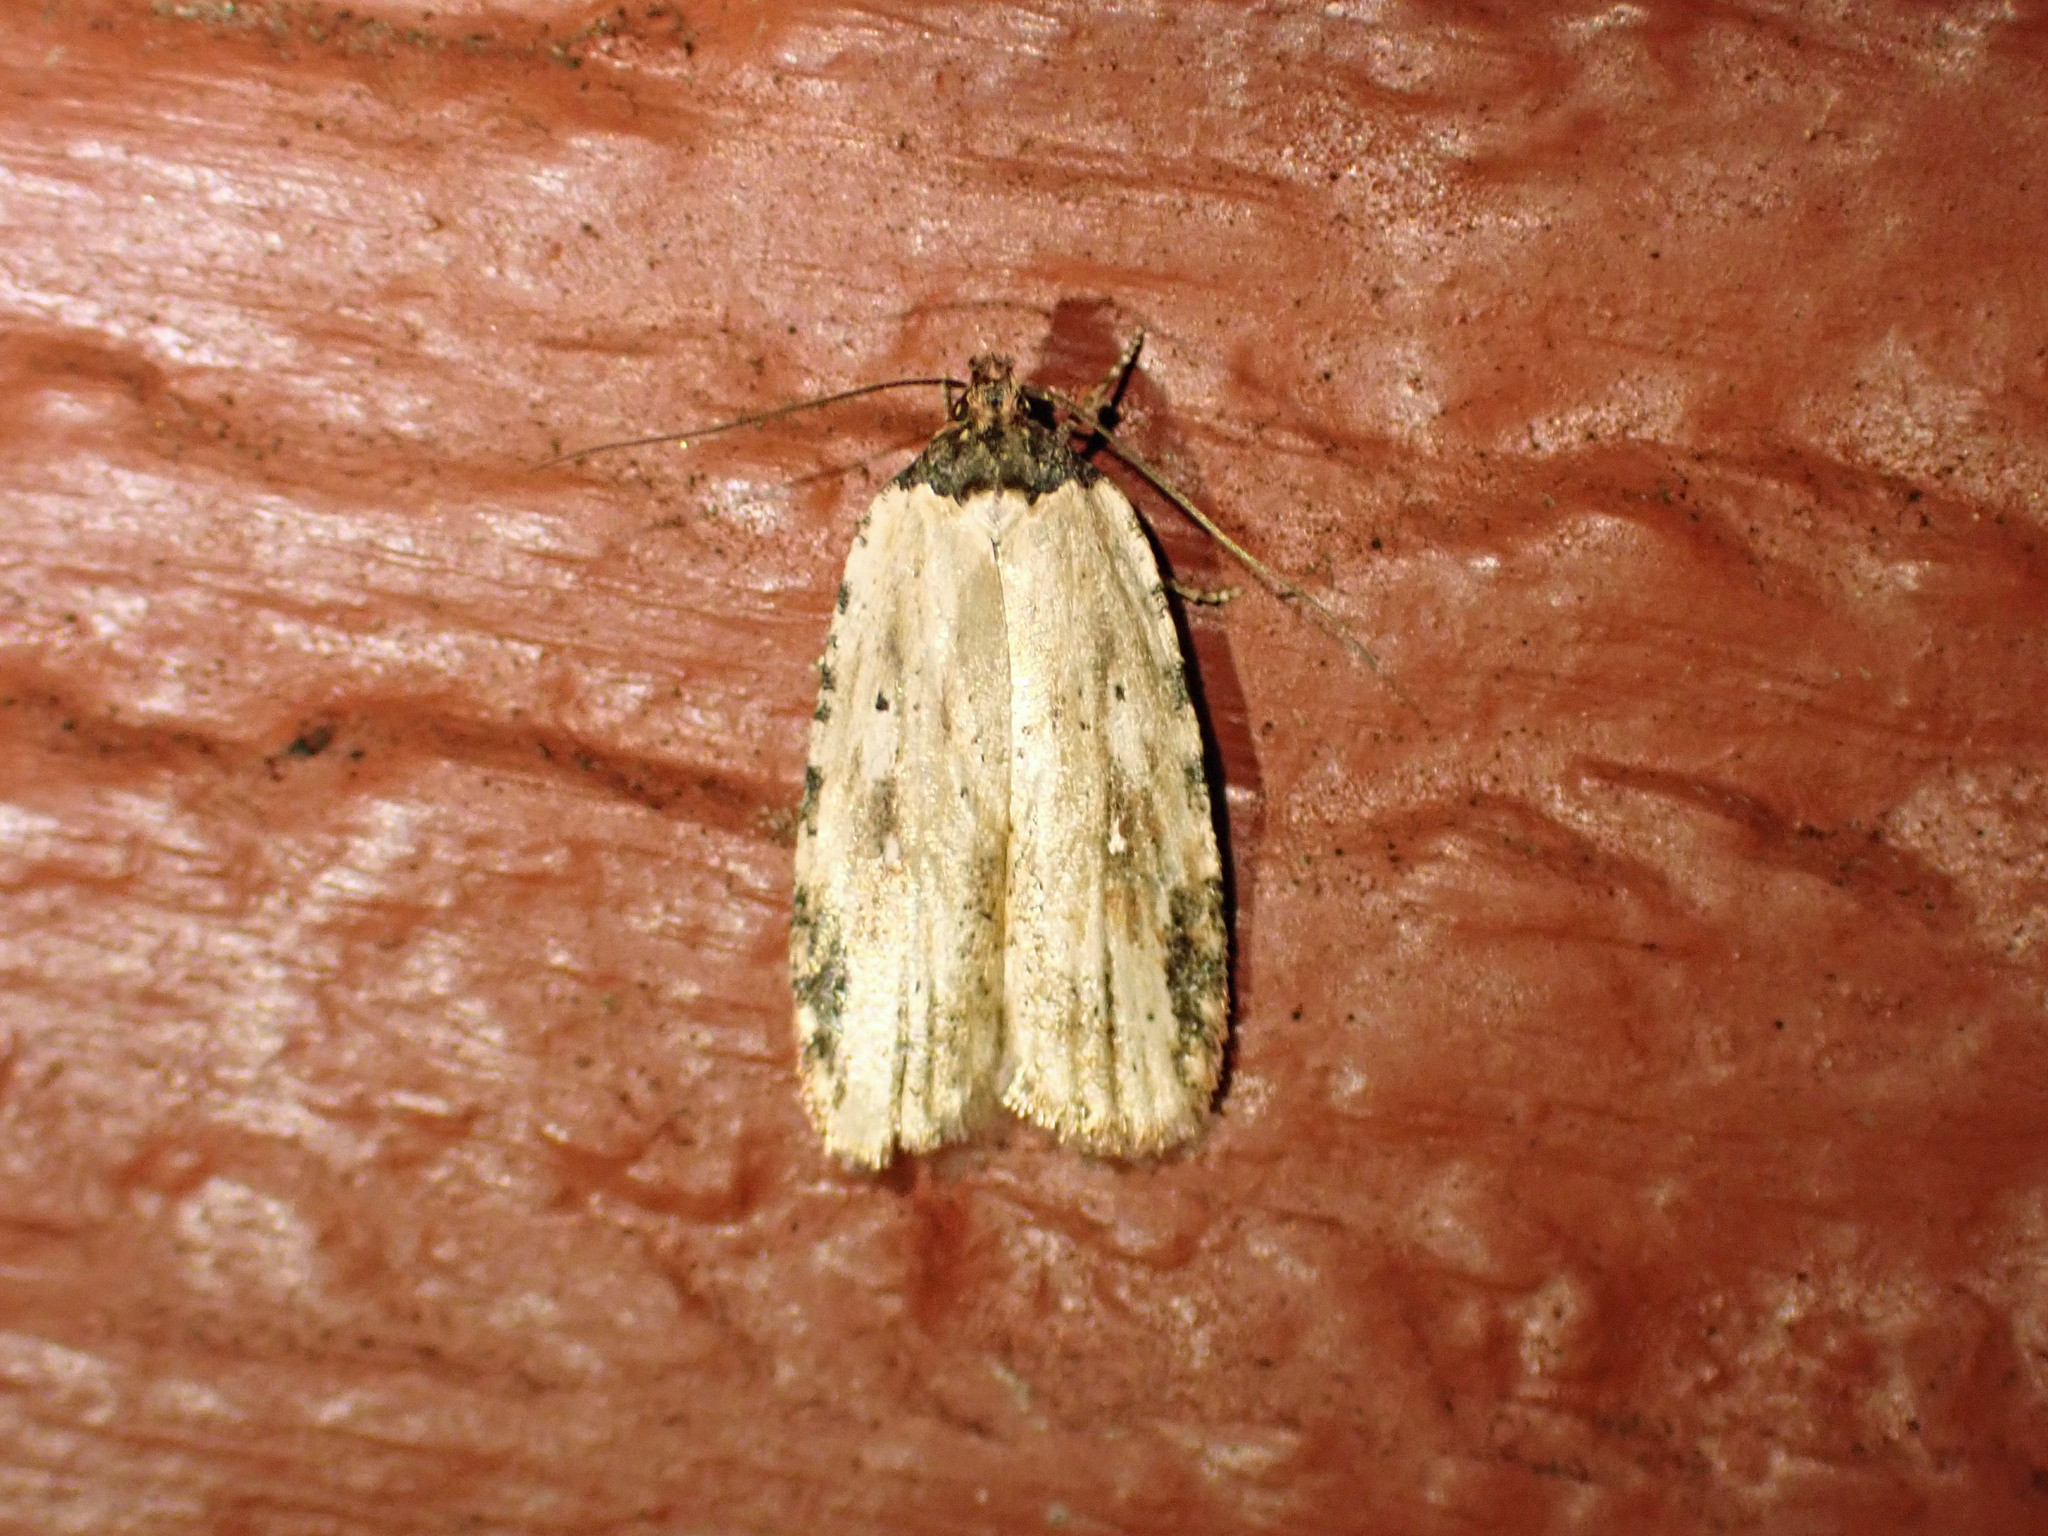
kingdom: Animalia
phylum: Arthropoda
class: Insecta
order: Lepidoptera
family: Depressariidae
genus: Agonopterix
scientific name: Agonopterix atrodorsella
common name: Beggartick leaffolder
